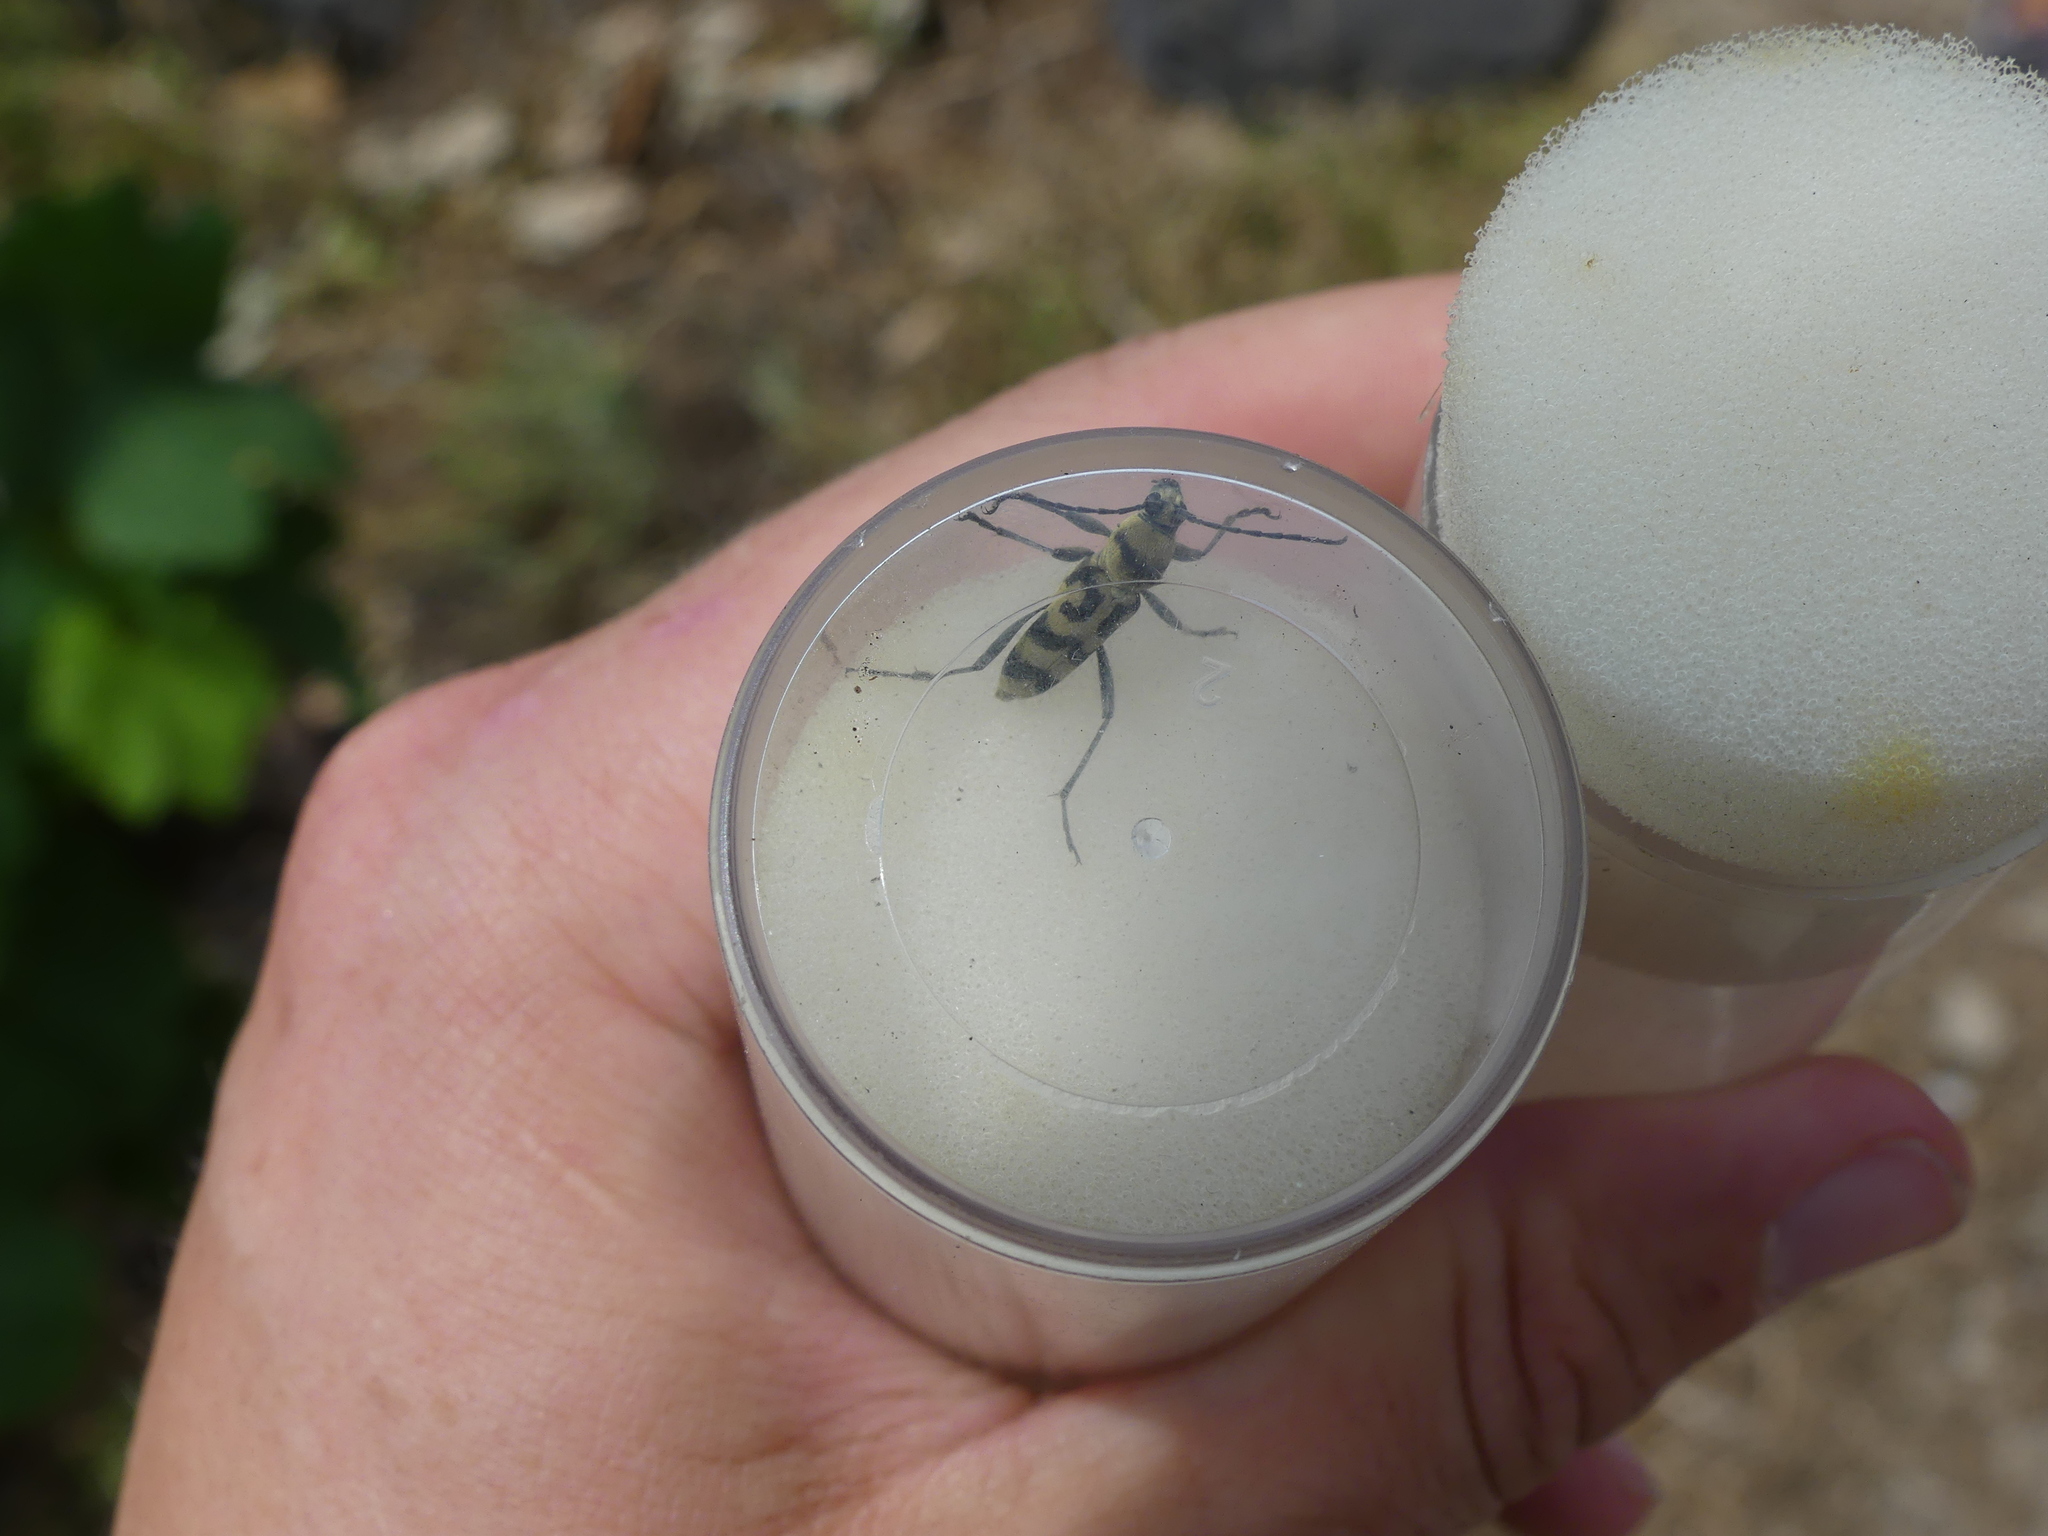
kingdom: Animalia
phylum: Arthropoda
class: Insecta
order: Coleoptera
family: Cerambycidae
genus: Chlorophorus
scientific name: Chlorophorus varius
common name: Grape wood borer
